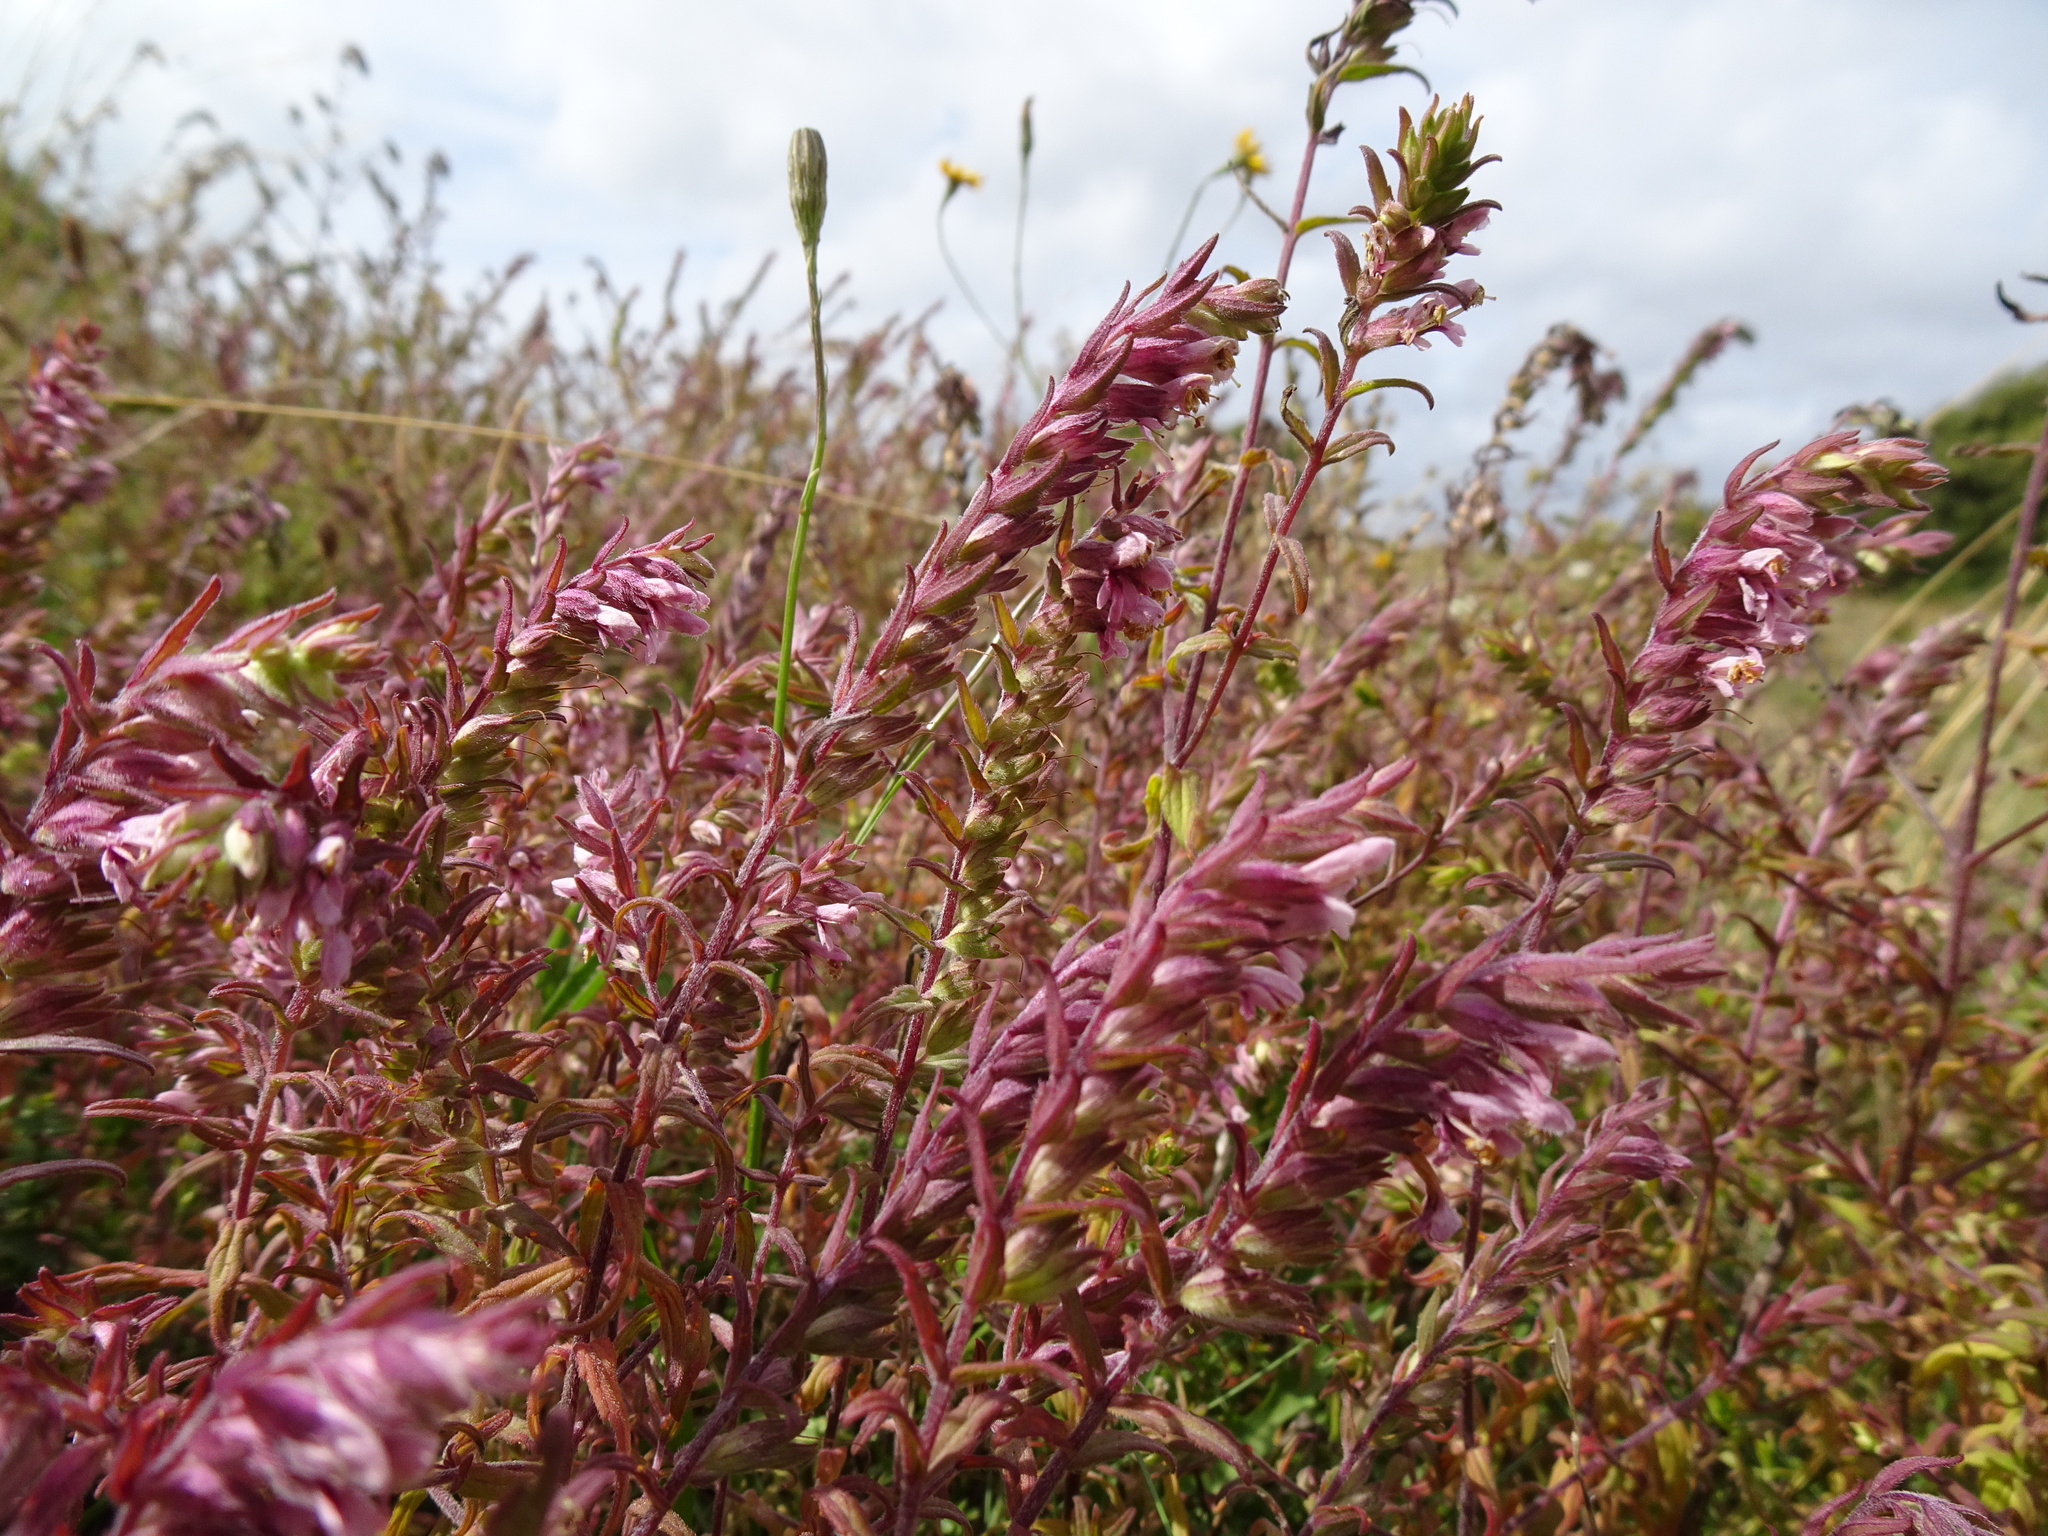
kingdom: Plantae
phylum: Tracheophyta
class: Magnoliopsida
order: Lamiales
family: Orobanchaceae
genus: Odontites
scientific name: Odontites vulgaris
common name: Broomrape
